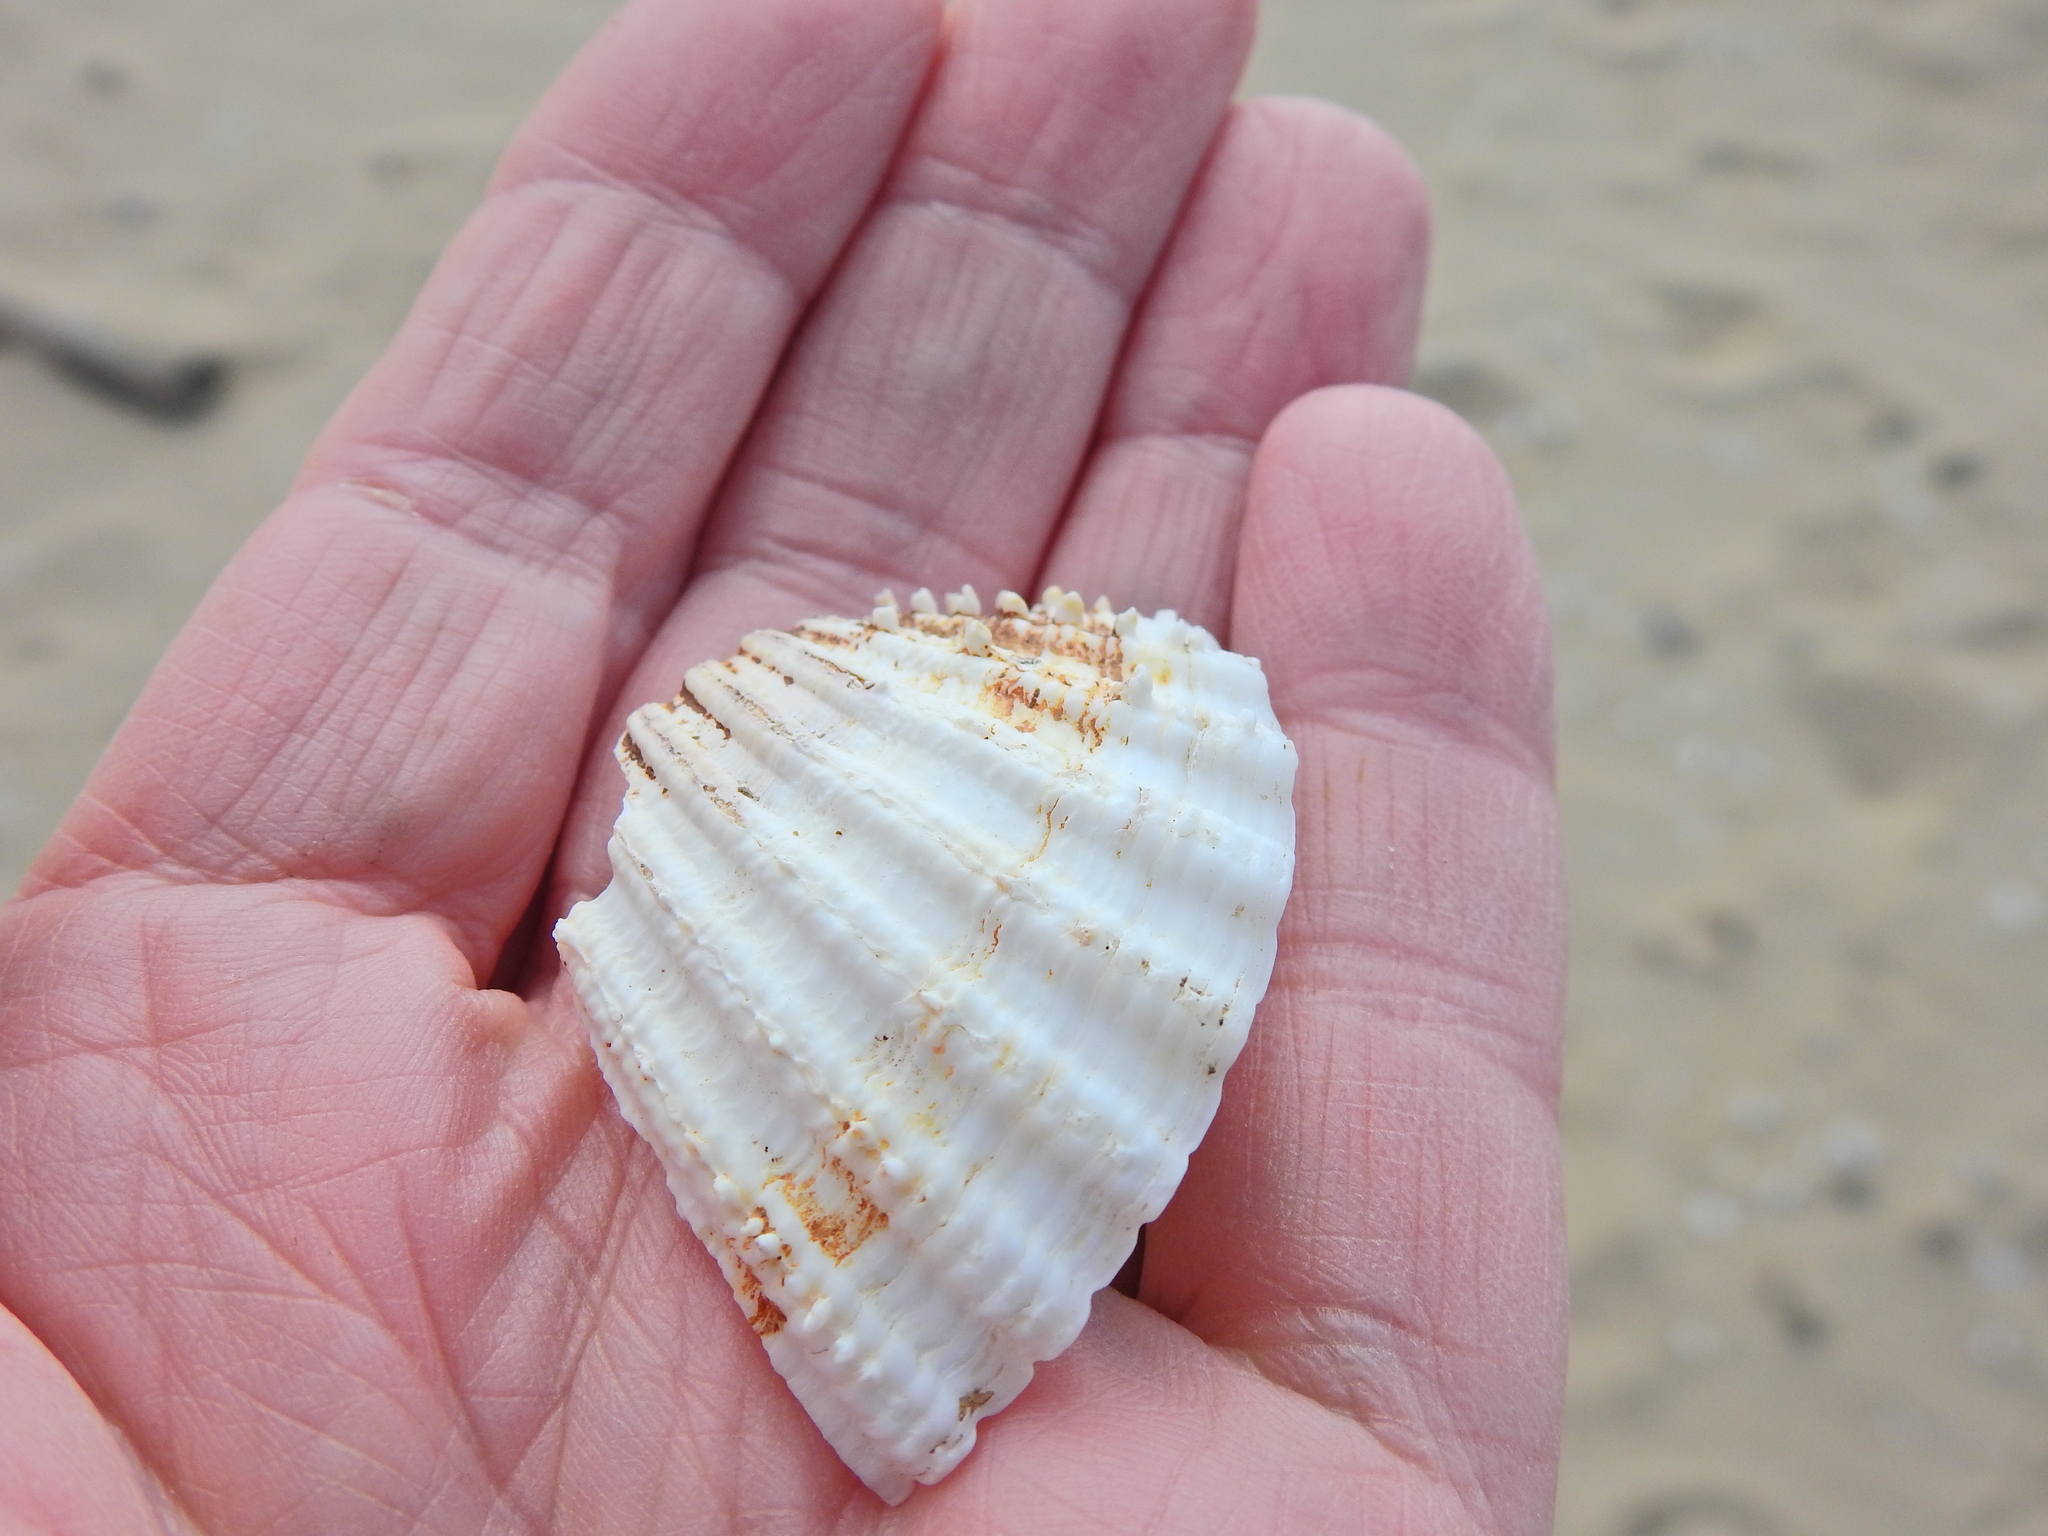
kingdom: Animalia
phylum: Mollusca
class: Bivalvia
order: Cardiida
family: Cardiidae
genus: Acanthocardia
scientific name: Acanthocardia echinata
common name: Prickly cockle
